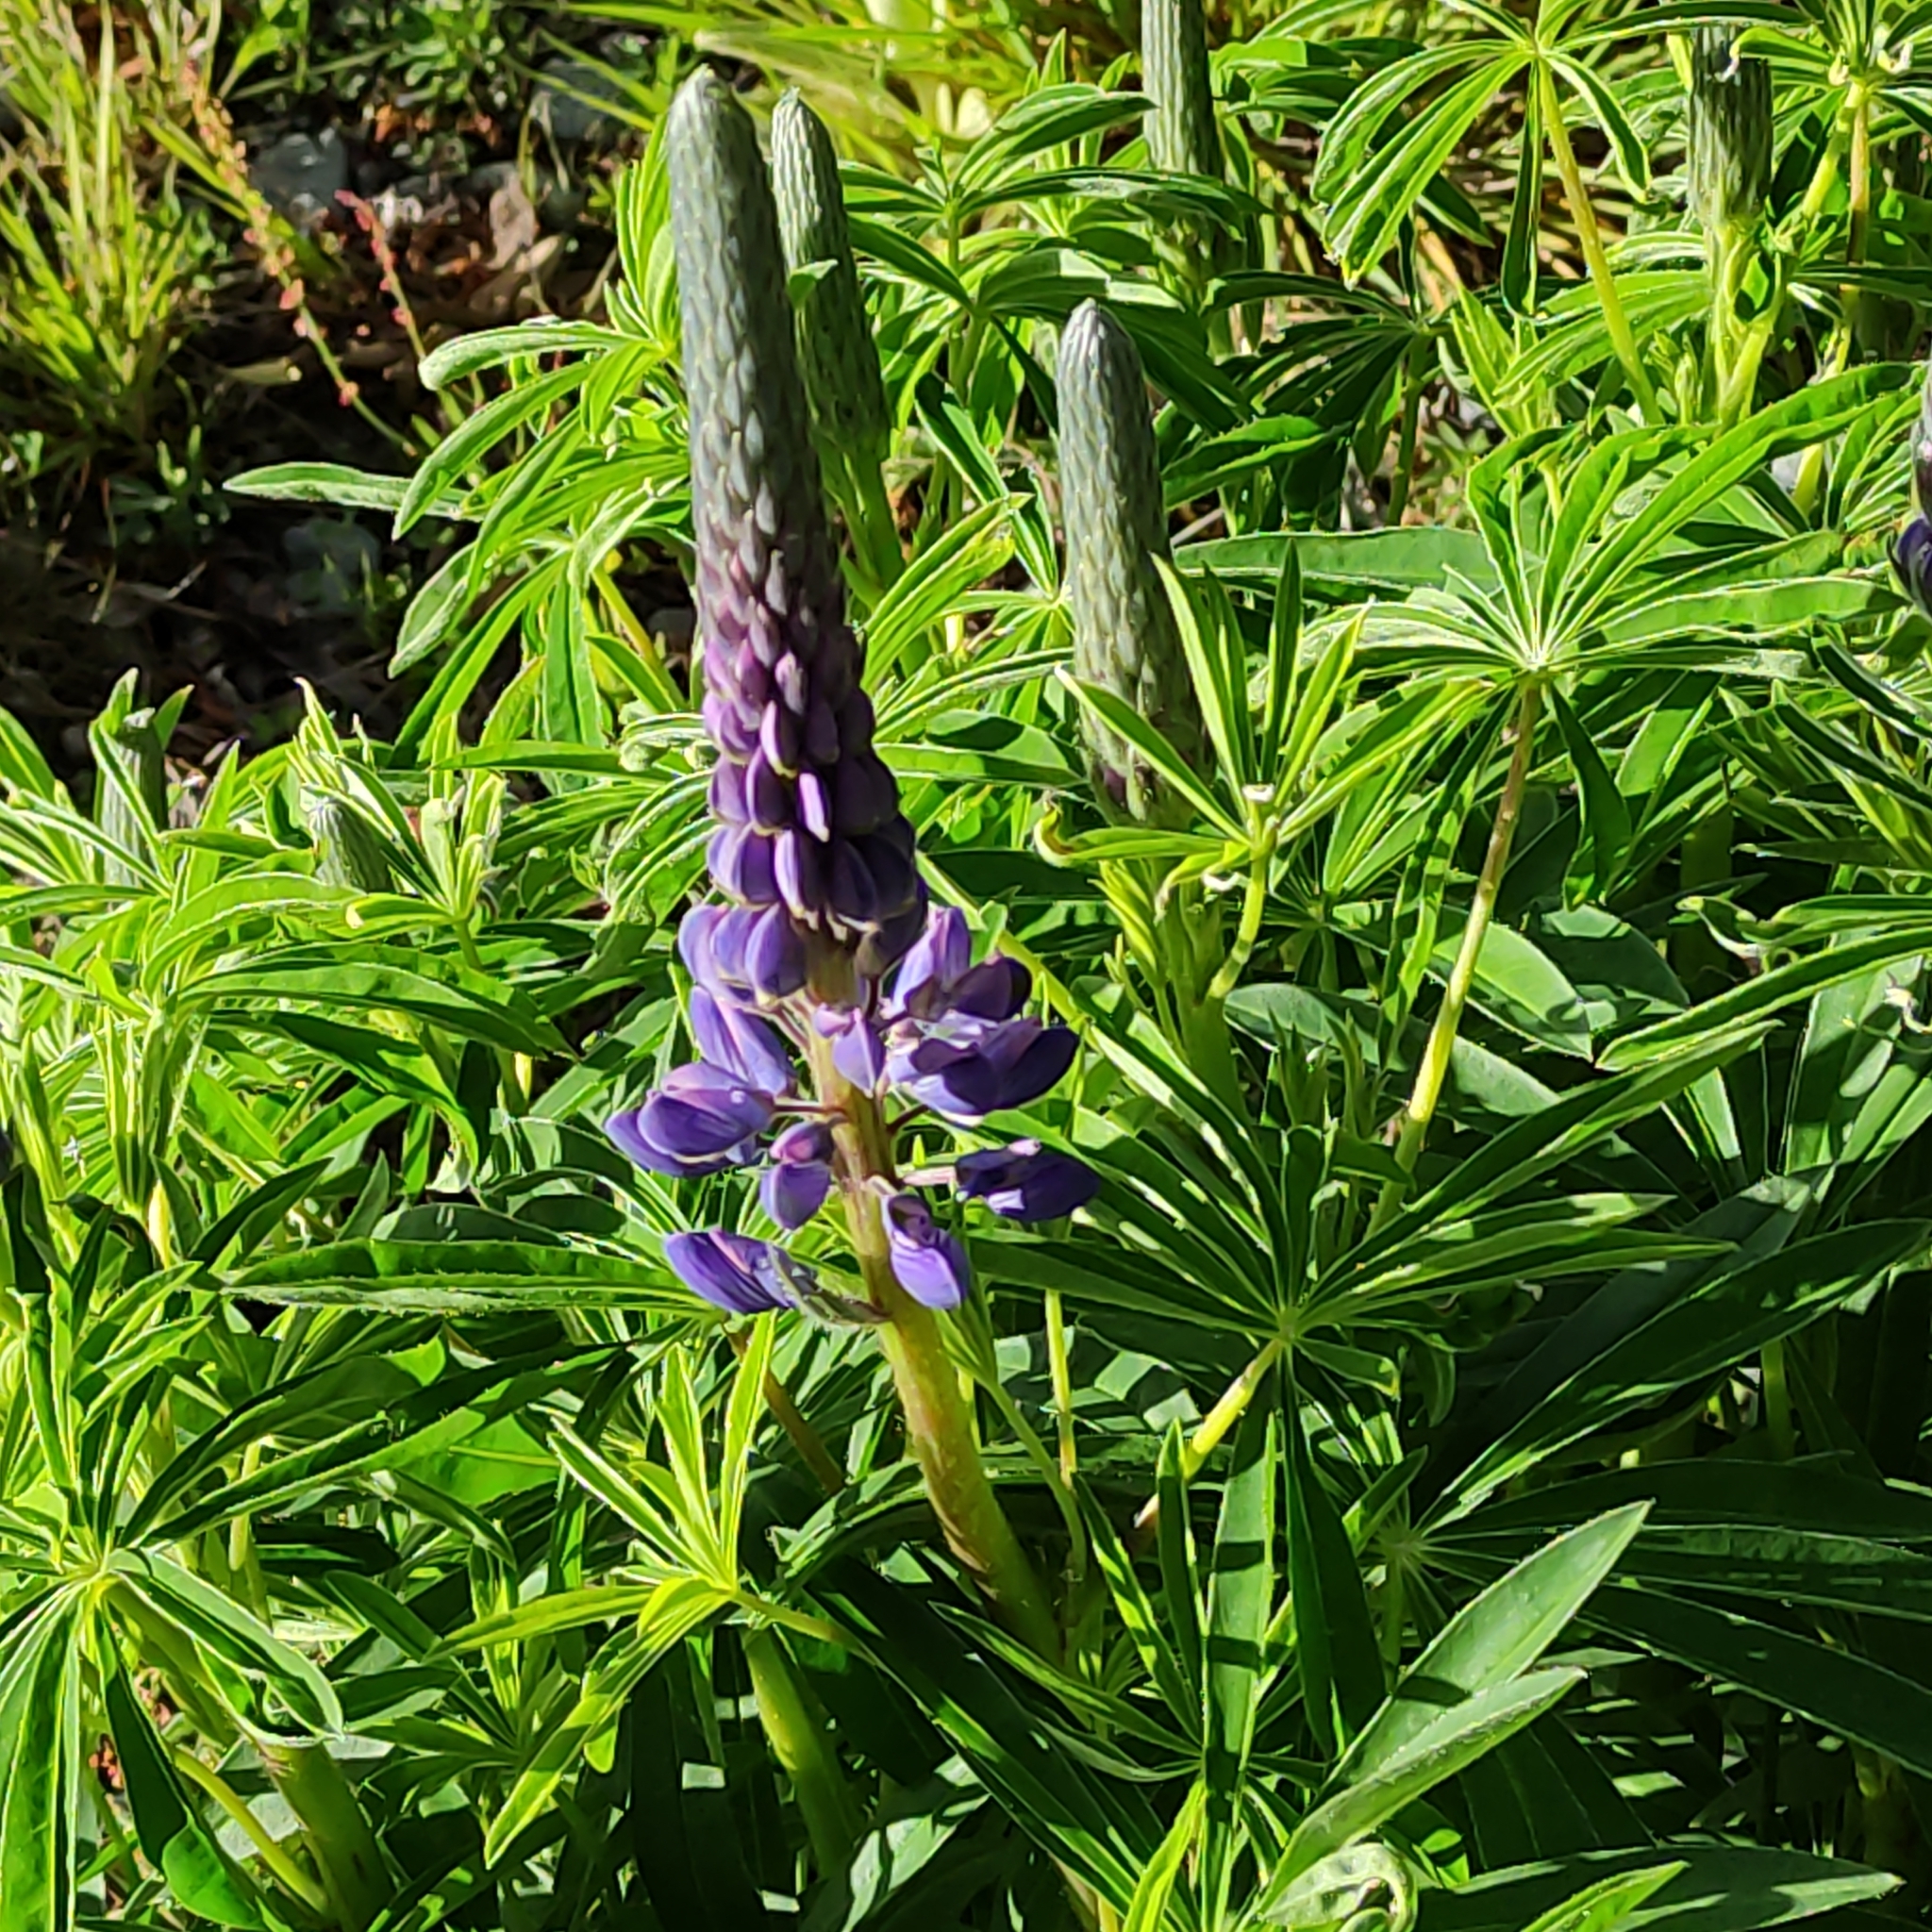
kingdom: Plantae
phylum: Tracheophyta
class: Magnoliopsida
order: Fabales
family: Fabaceae
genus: Lupinus
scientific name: Lupinus polyphyllus
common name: Garden lupin
